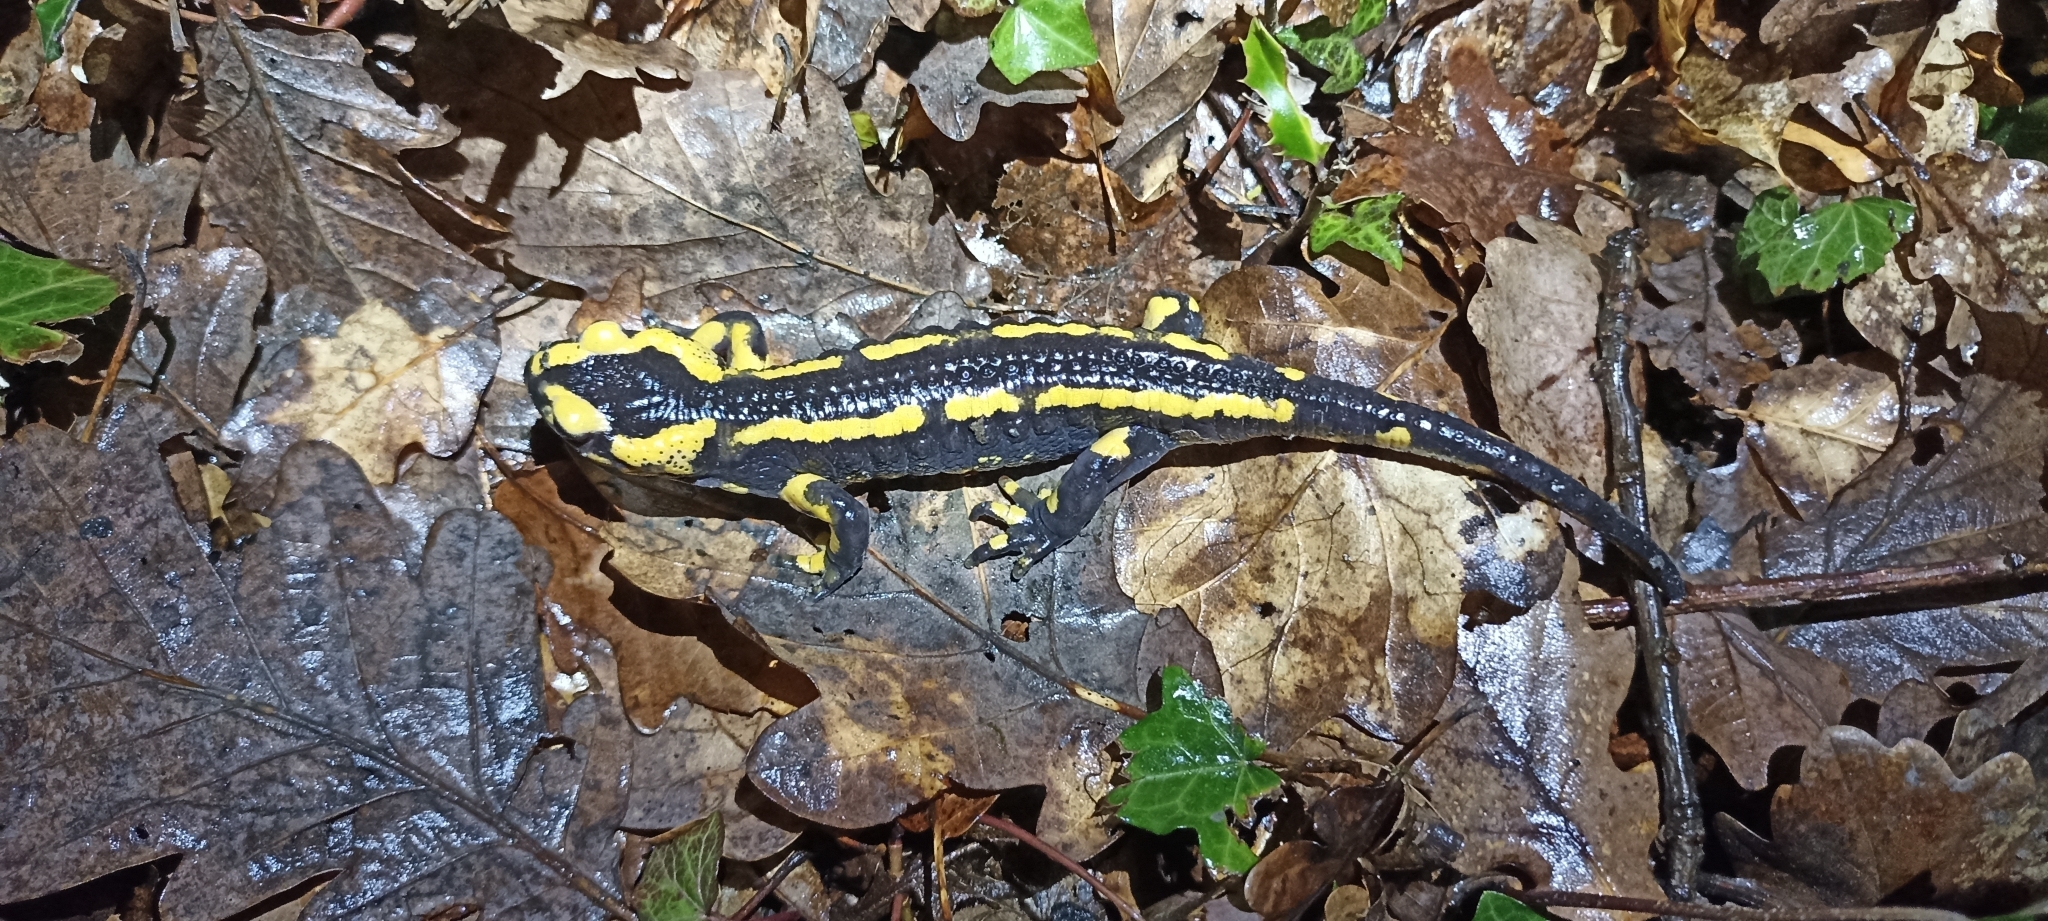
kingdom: Animalia
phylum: Chordata
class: Amphibia
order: Caudata
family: Salamandridae
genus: Salamandra
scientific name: Salamandra salamandra
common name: Fire salamander
